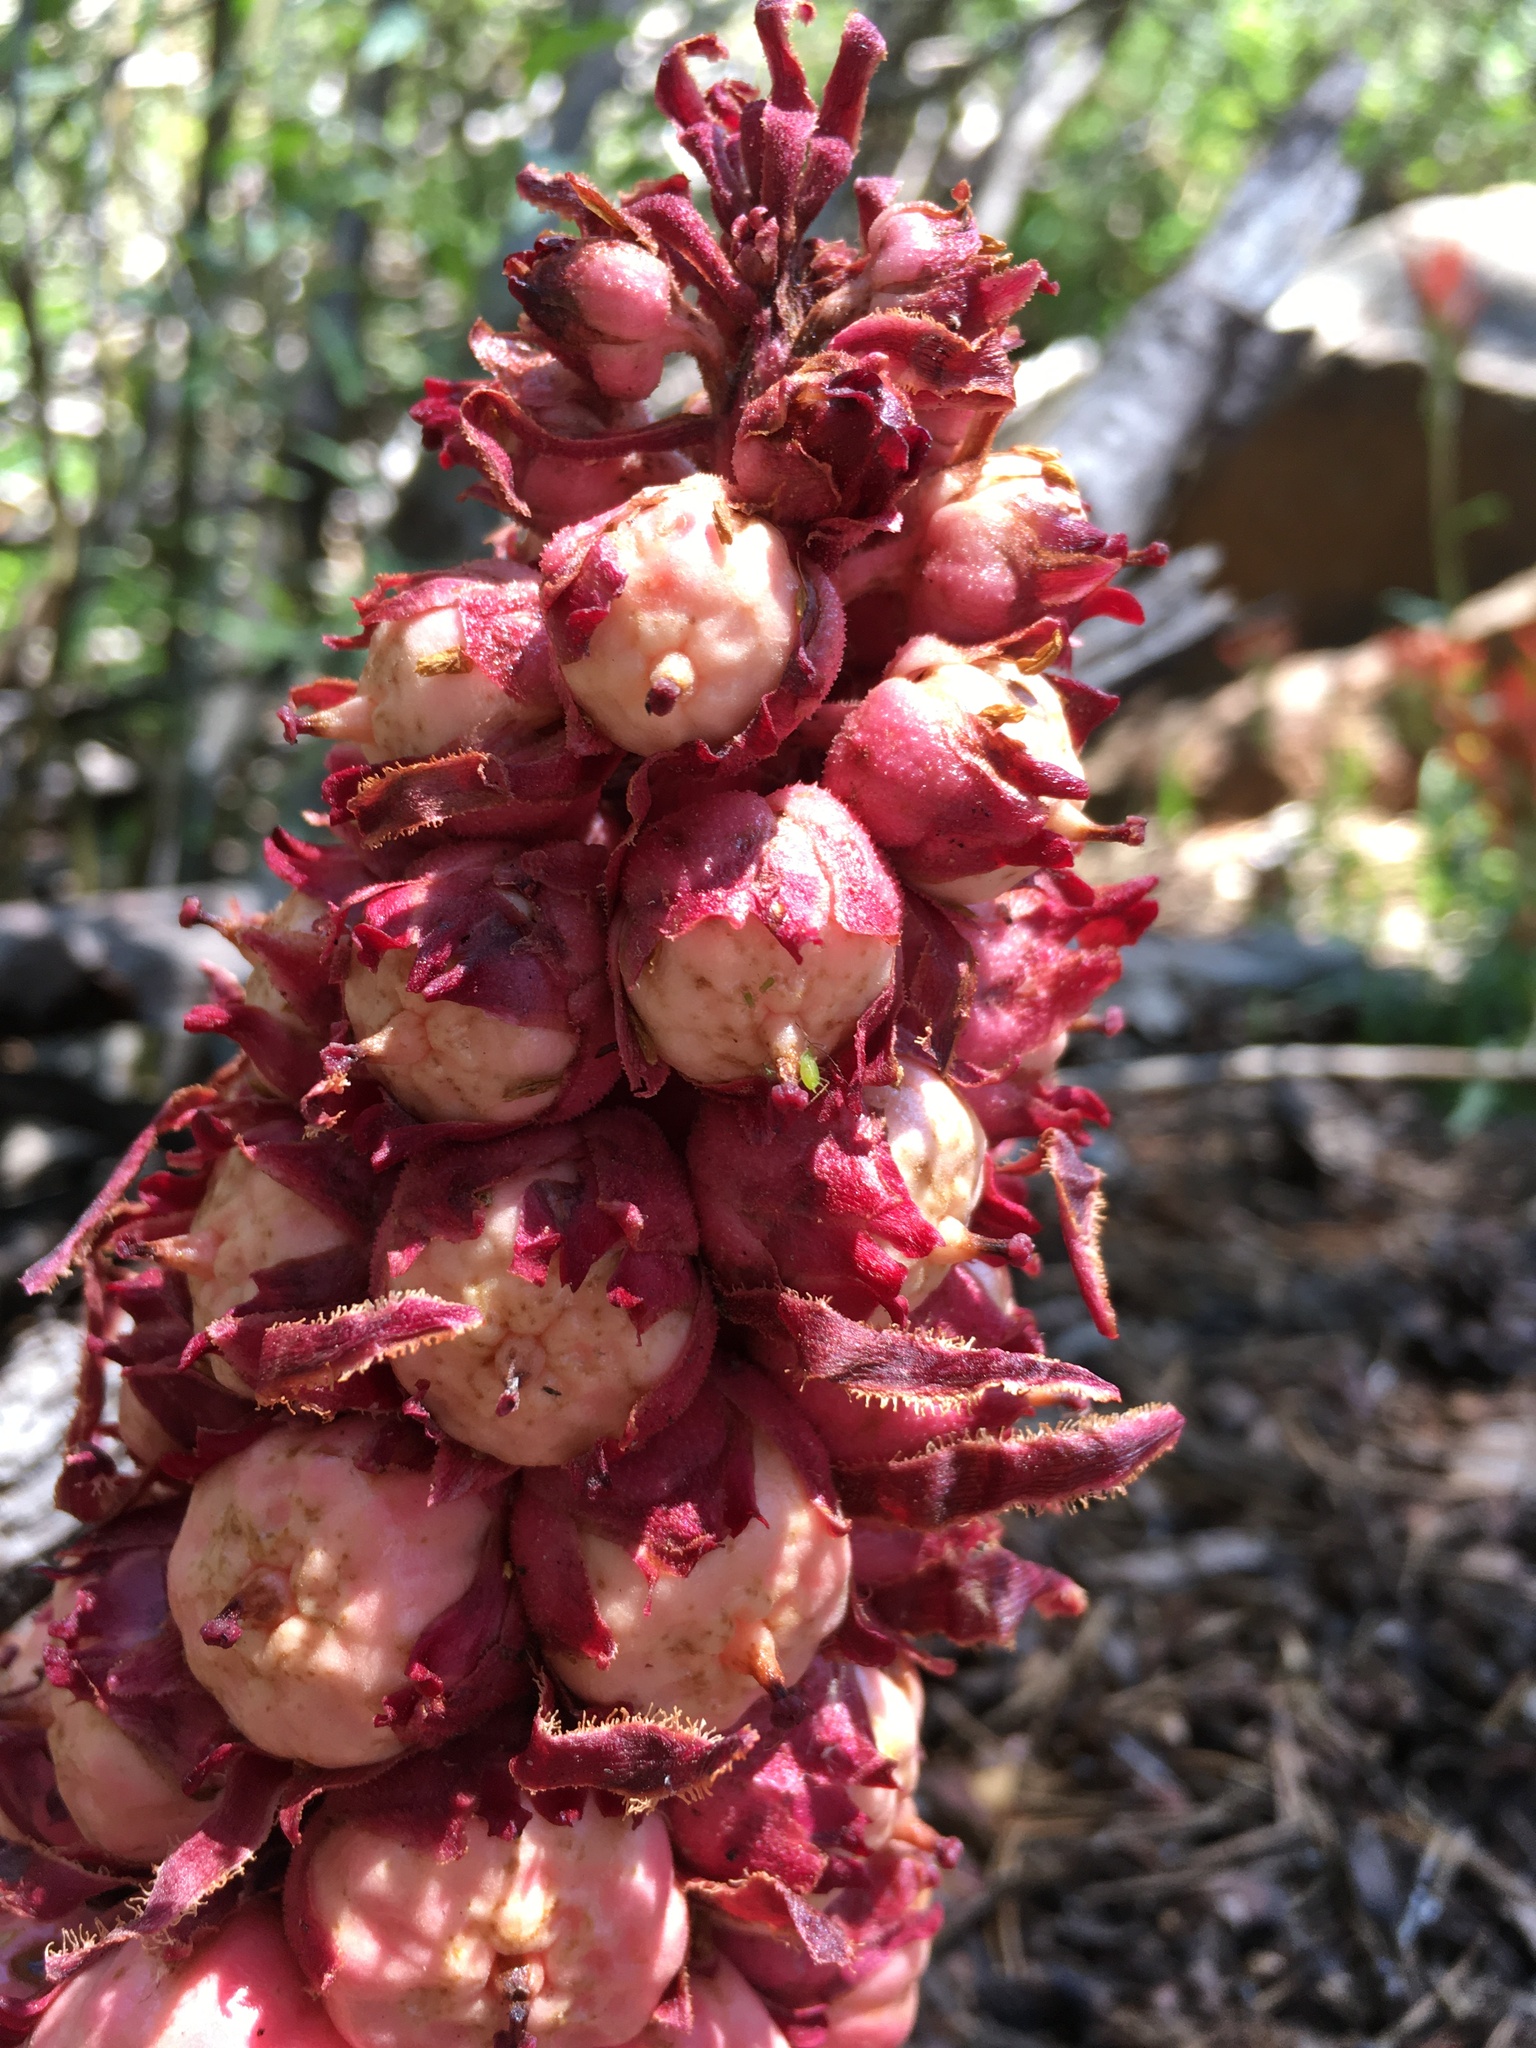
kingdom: Plantae
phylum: Tracheophyta
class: Magnoliopsida
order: Ericales
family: Ericaceae
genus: Sarcodes
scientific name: Sarcodes sanguinea
